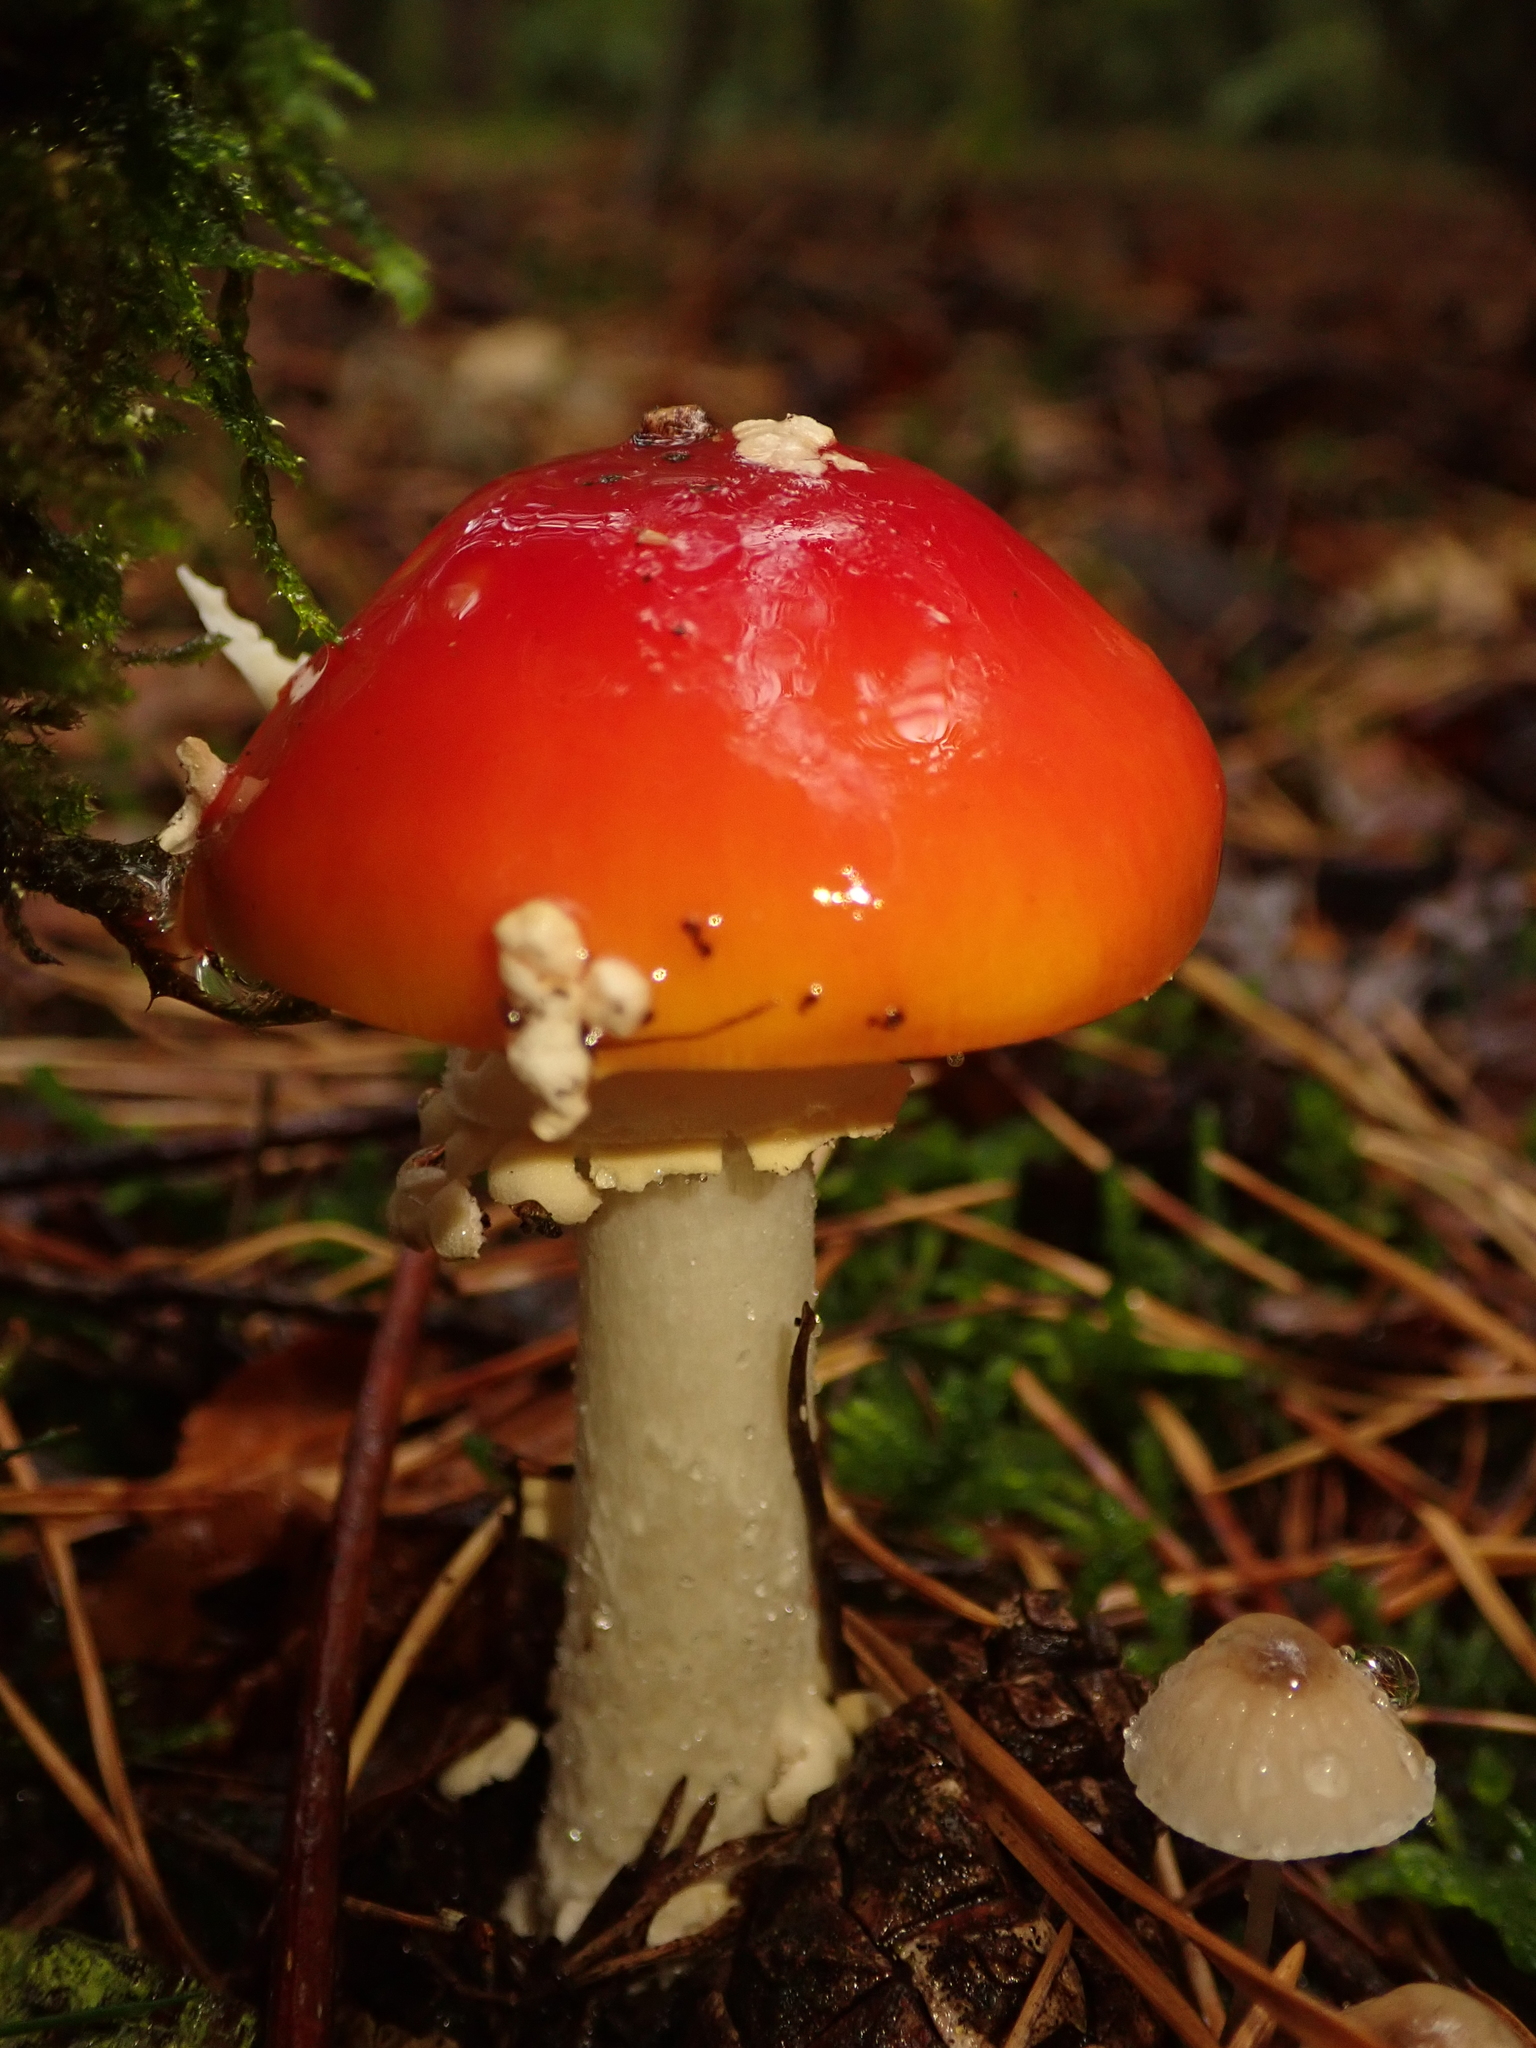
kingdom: Fungi
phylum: Basidiomycota
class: Agaricomycetes
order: Agaricales
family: Amanitaceae
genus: Amanita
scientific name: Amanita muscaria
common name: Fly agaric
